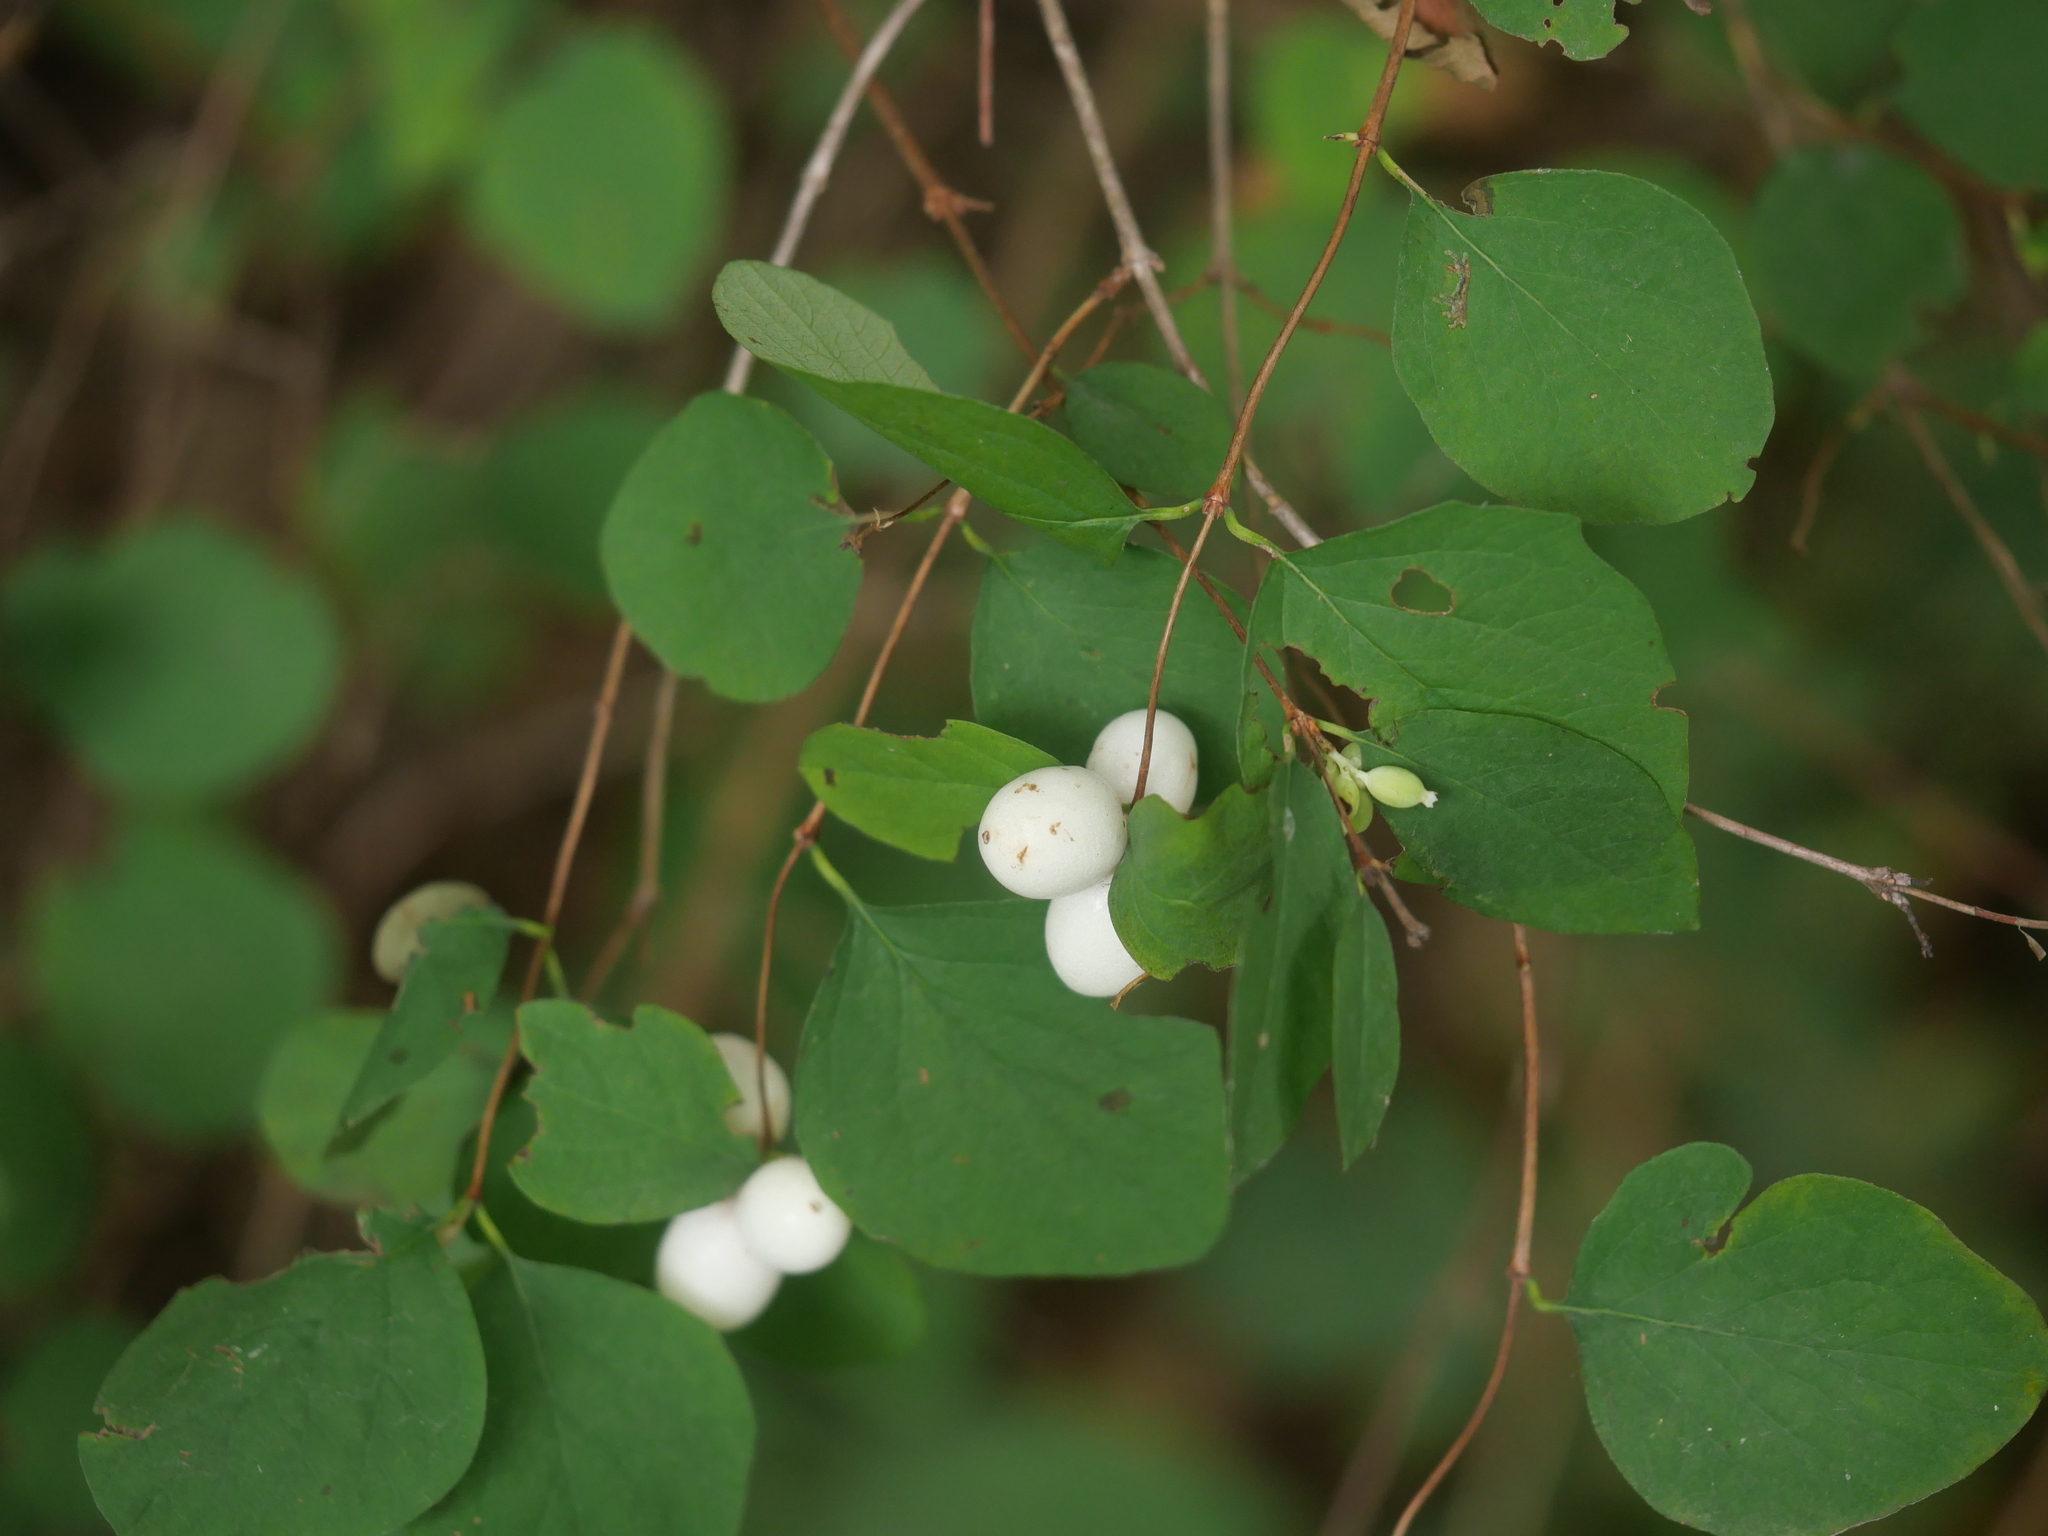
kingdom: Plantae
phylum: Tracheophyta
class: Magnoliopsida
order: Dipsacales
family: Caprifoliaceae
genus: Symphoricarpos
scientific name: Symphoricarpos albus
